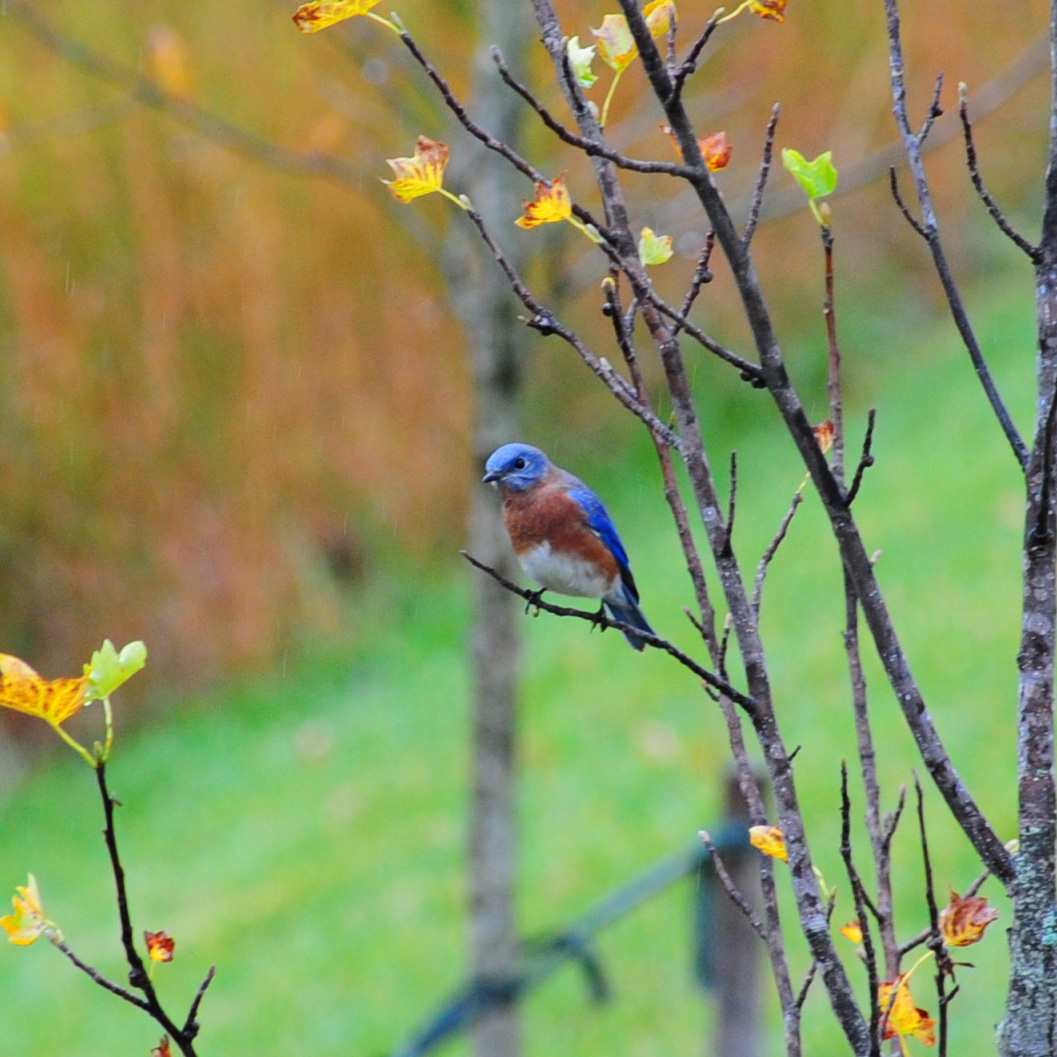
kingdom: Animalia
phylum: Chordata
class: Aves
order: Passeriformes
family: Turdidae
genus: Sialia
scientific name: Sialia sialis
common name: Eastern bluebird
